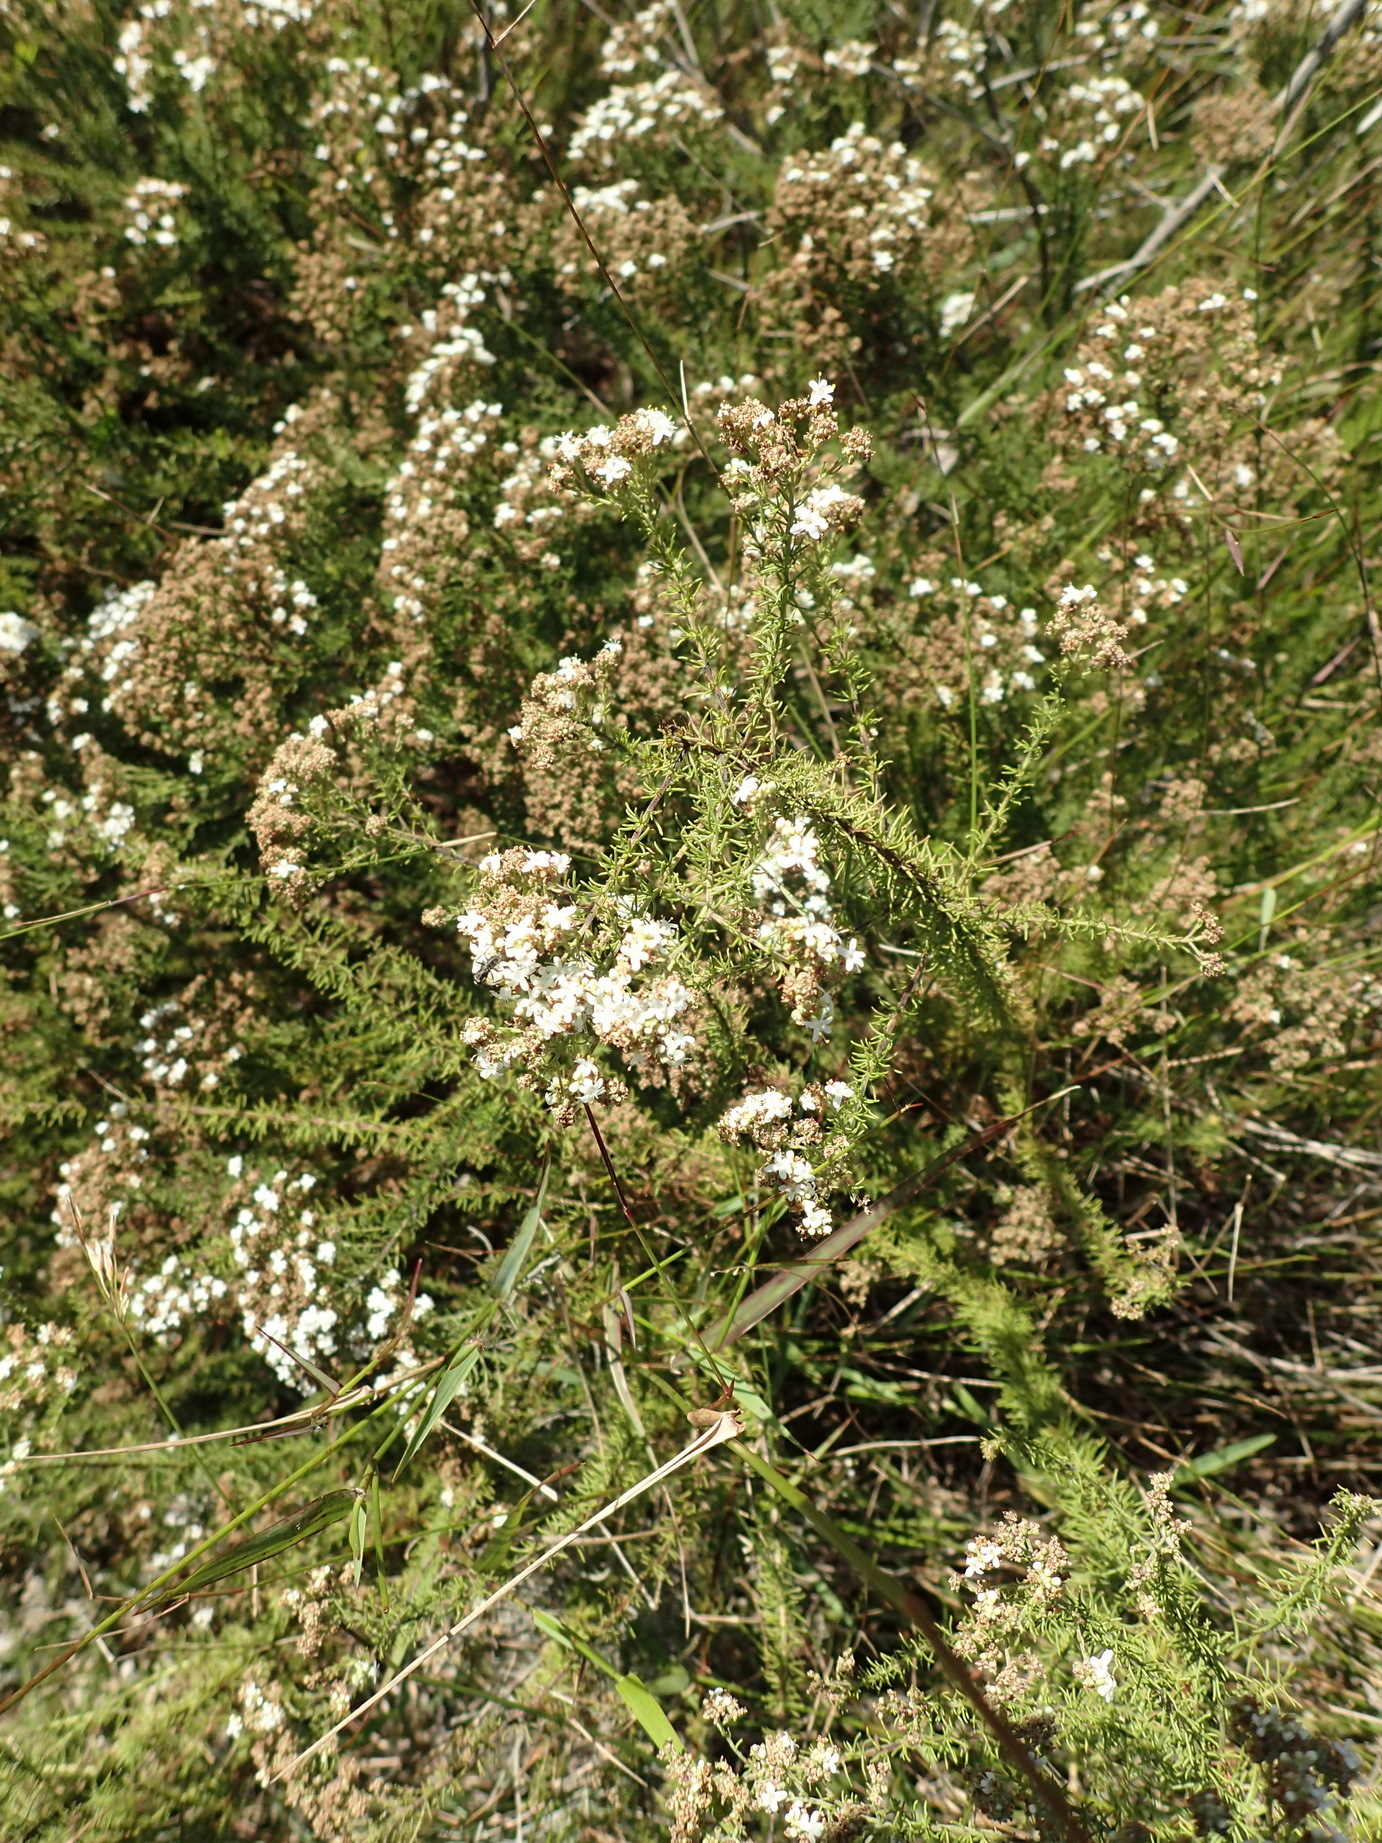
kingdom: Plantae
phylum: Tracheophyta
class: Magnoliopsida
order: Lamiales
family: Scrophulariaceae
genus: Selago
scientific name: Selago corymbosa
